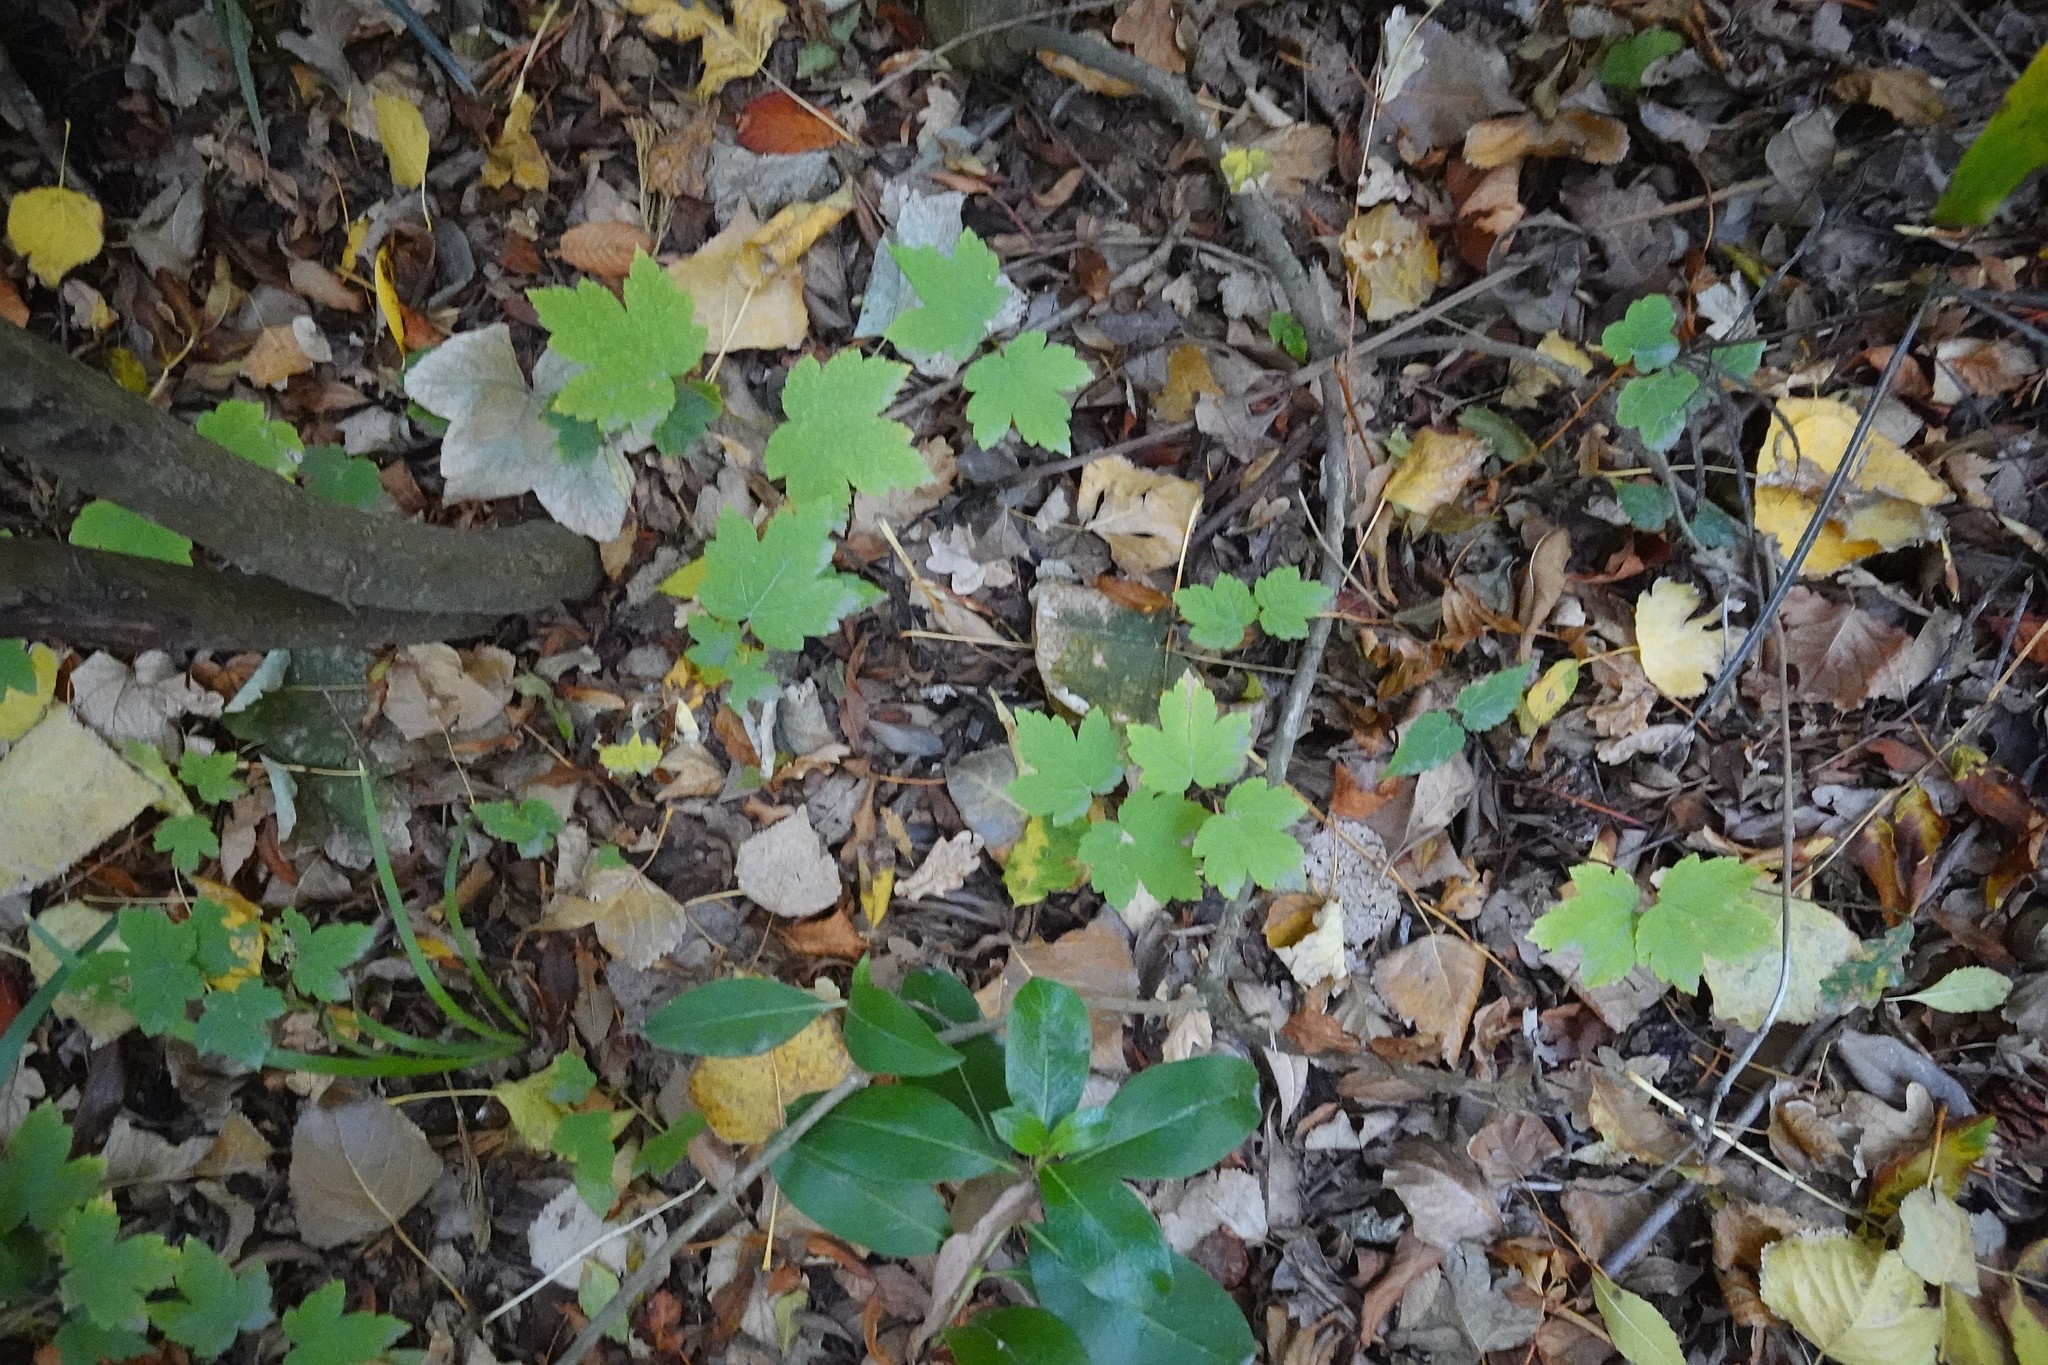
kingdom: Plantae
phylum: Tracheophyta
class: Magnoliopsida
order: Sapindales
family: Sapindaceae
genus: Acer
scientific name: Acer pseudoplatanus
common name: Sycamore
